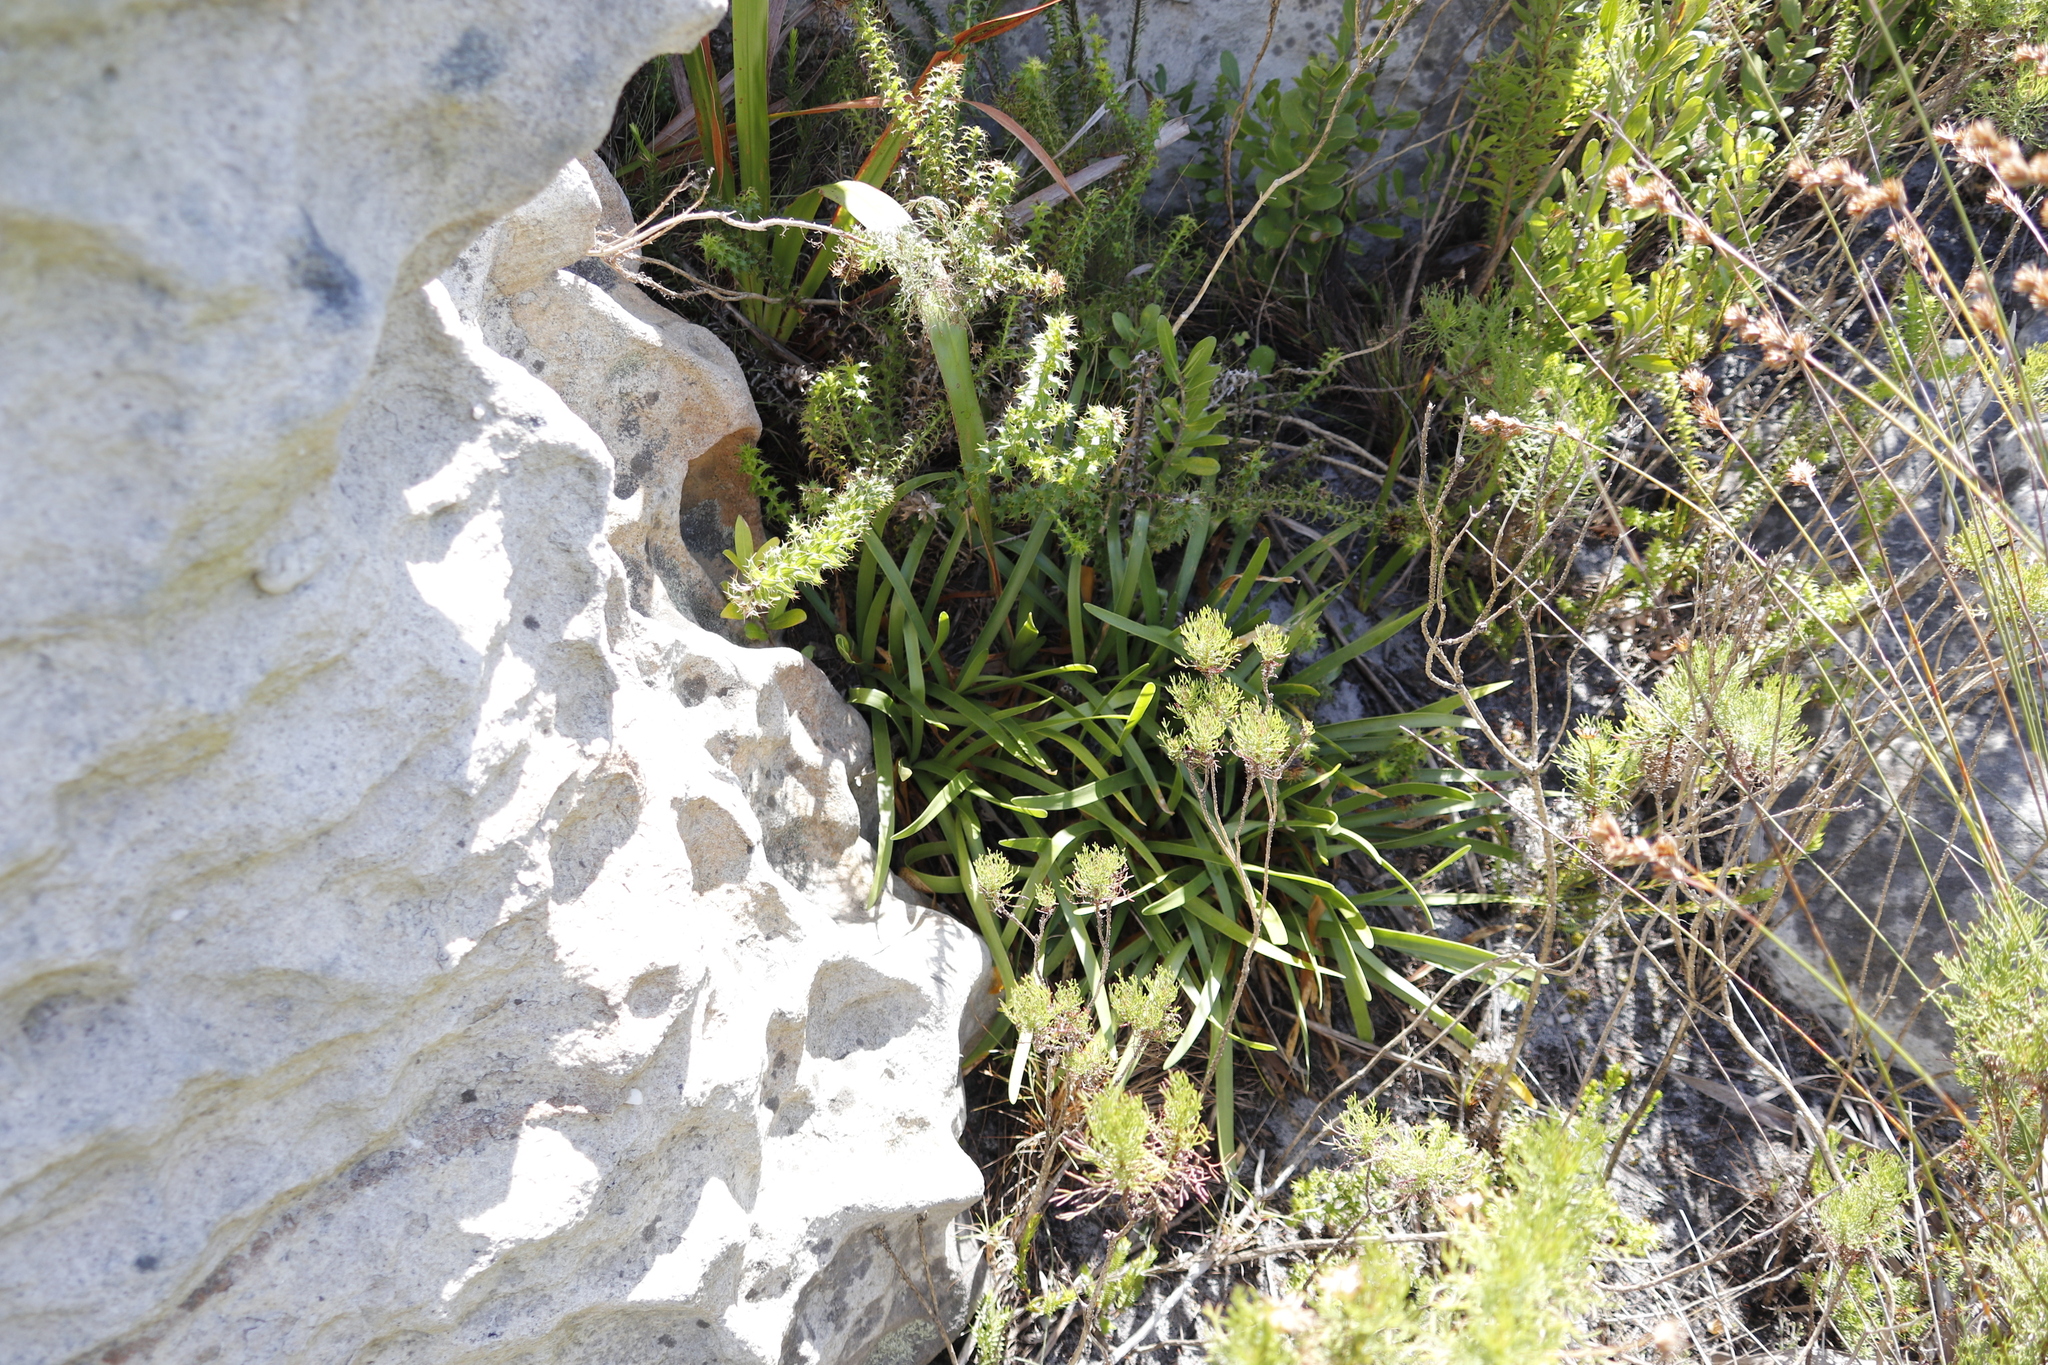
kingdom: Plantae
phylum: Tracheophyta
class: Liliopsida
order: Asparagales
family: Amaryllidaceae
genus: Agapanthus
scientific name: Agapanthus africanus
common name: Lily-of-the-nile
